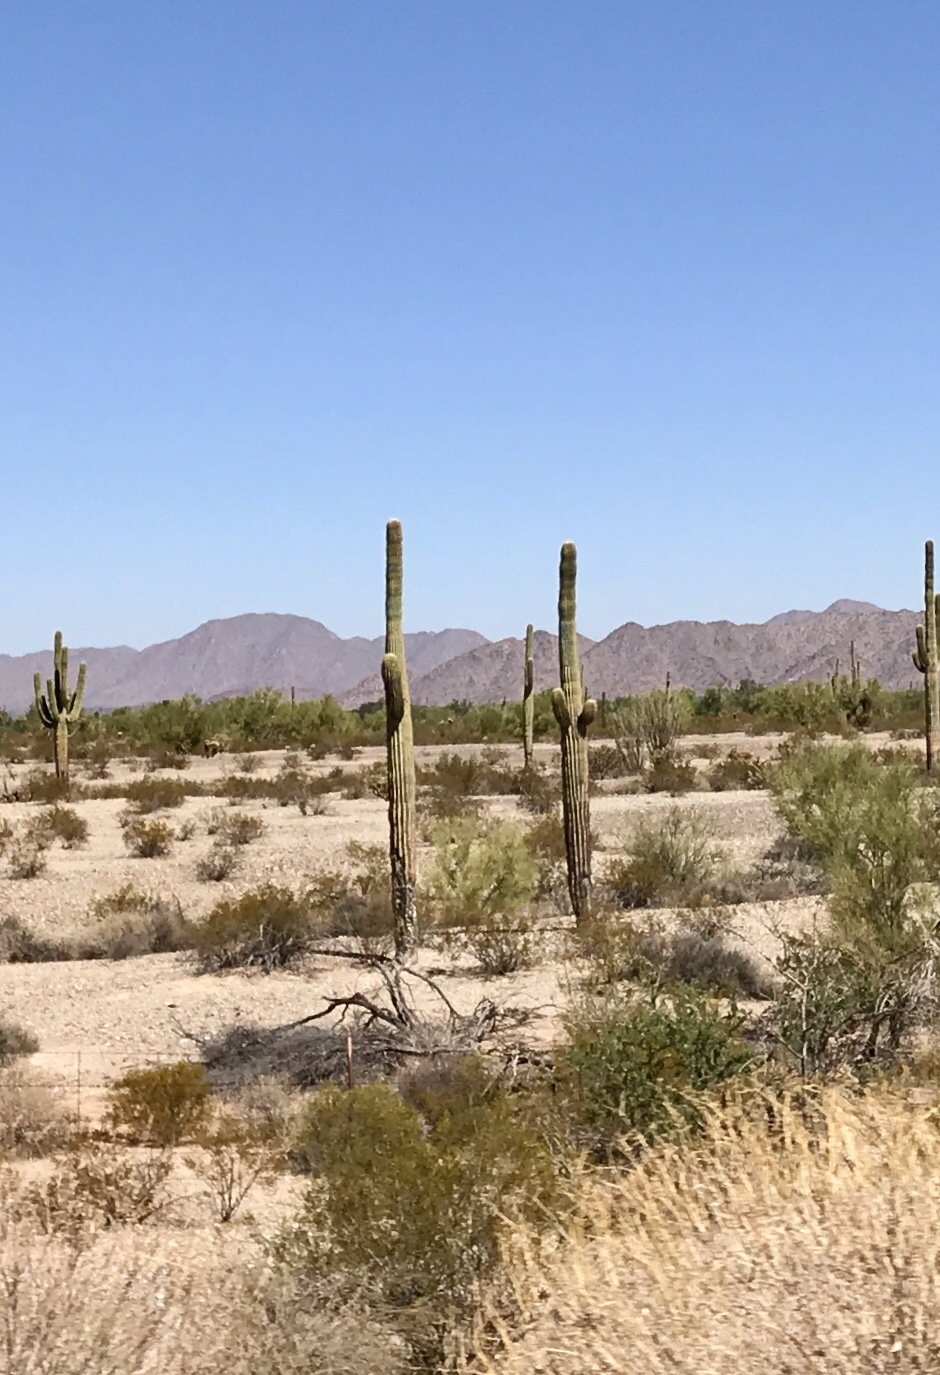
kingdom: Plantae
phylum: Tracheophyta
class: Magnoliopsida
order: Caryophyllales
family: Cactaceae
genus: Carnegiea
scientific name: Carnegiea gigantea
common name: Saguaro
